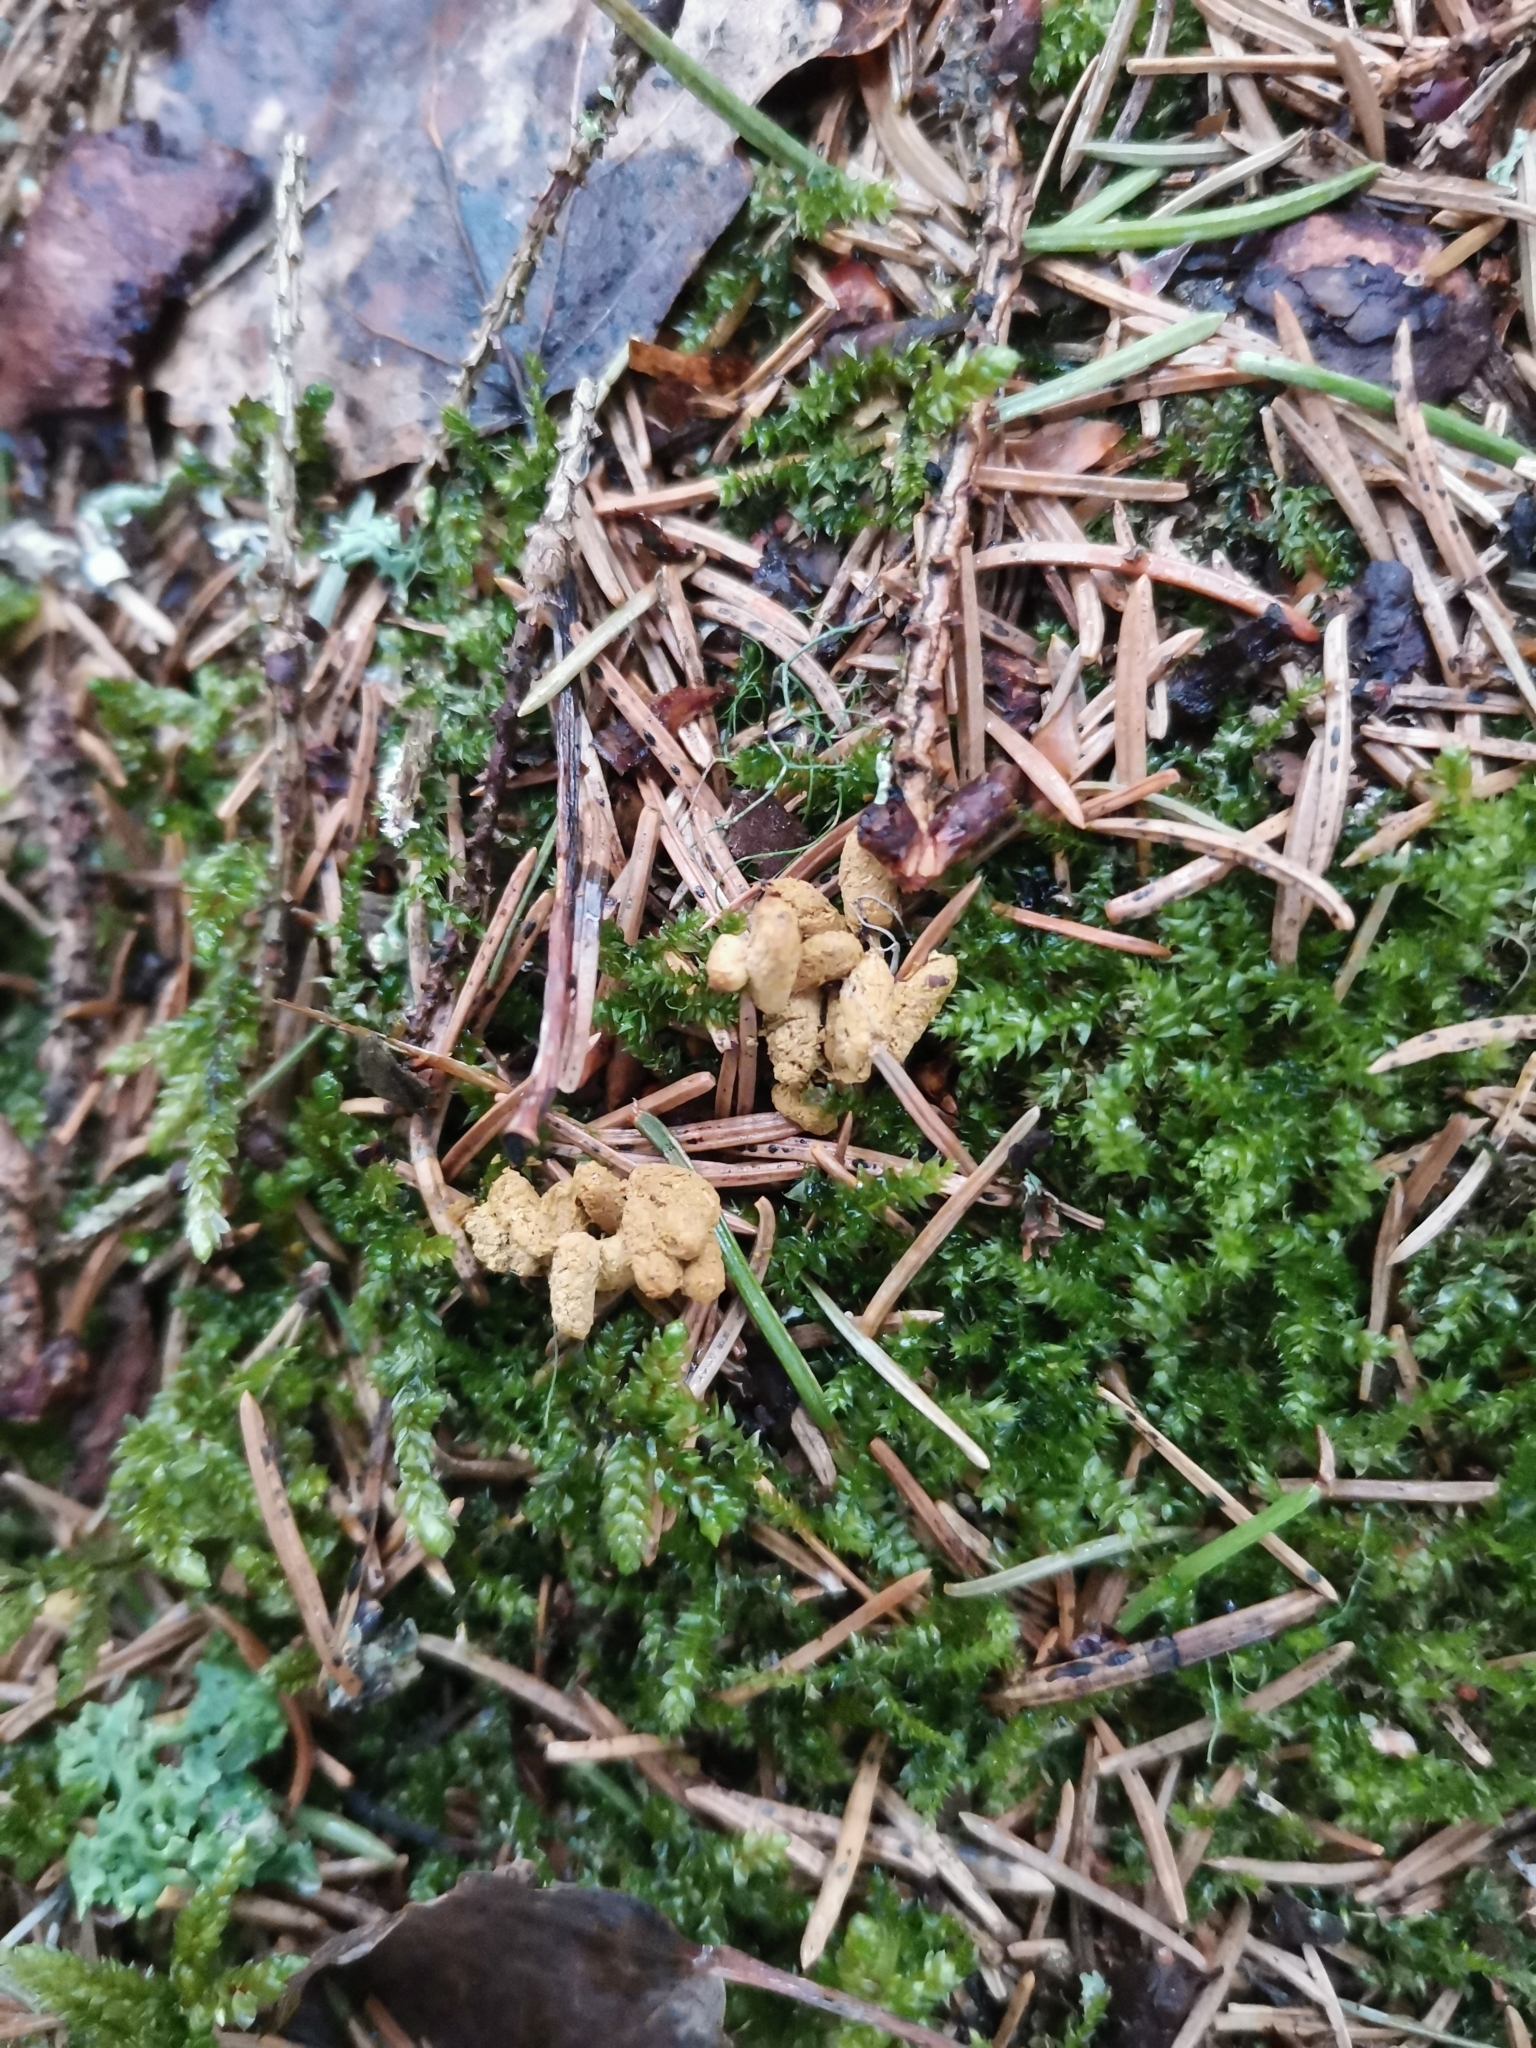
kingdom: Animalia
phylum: Chordata
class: Mammalia
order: Rodentia
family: Sciuridae
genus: Pteromys
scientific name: Pteromys volans
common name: Siberian flying squirrel
